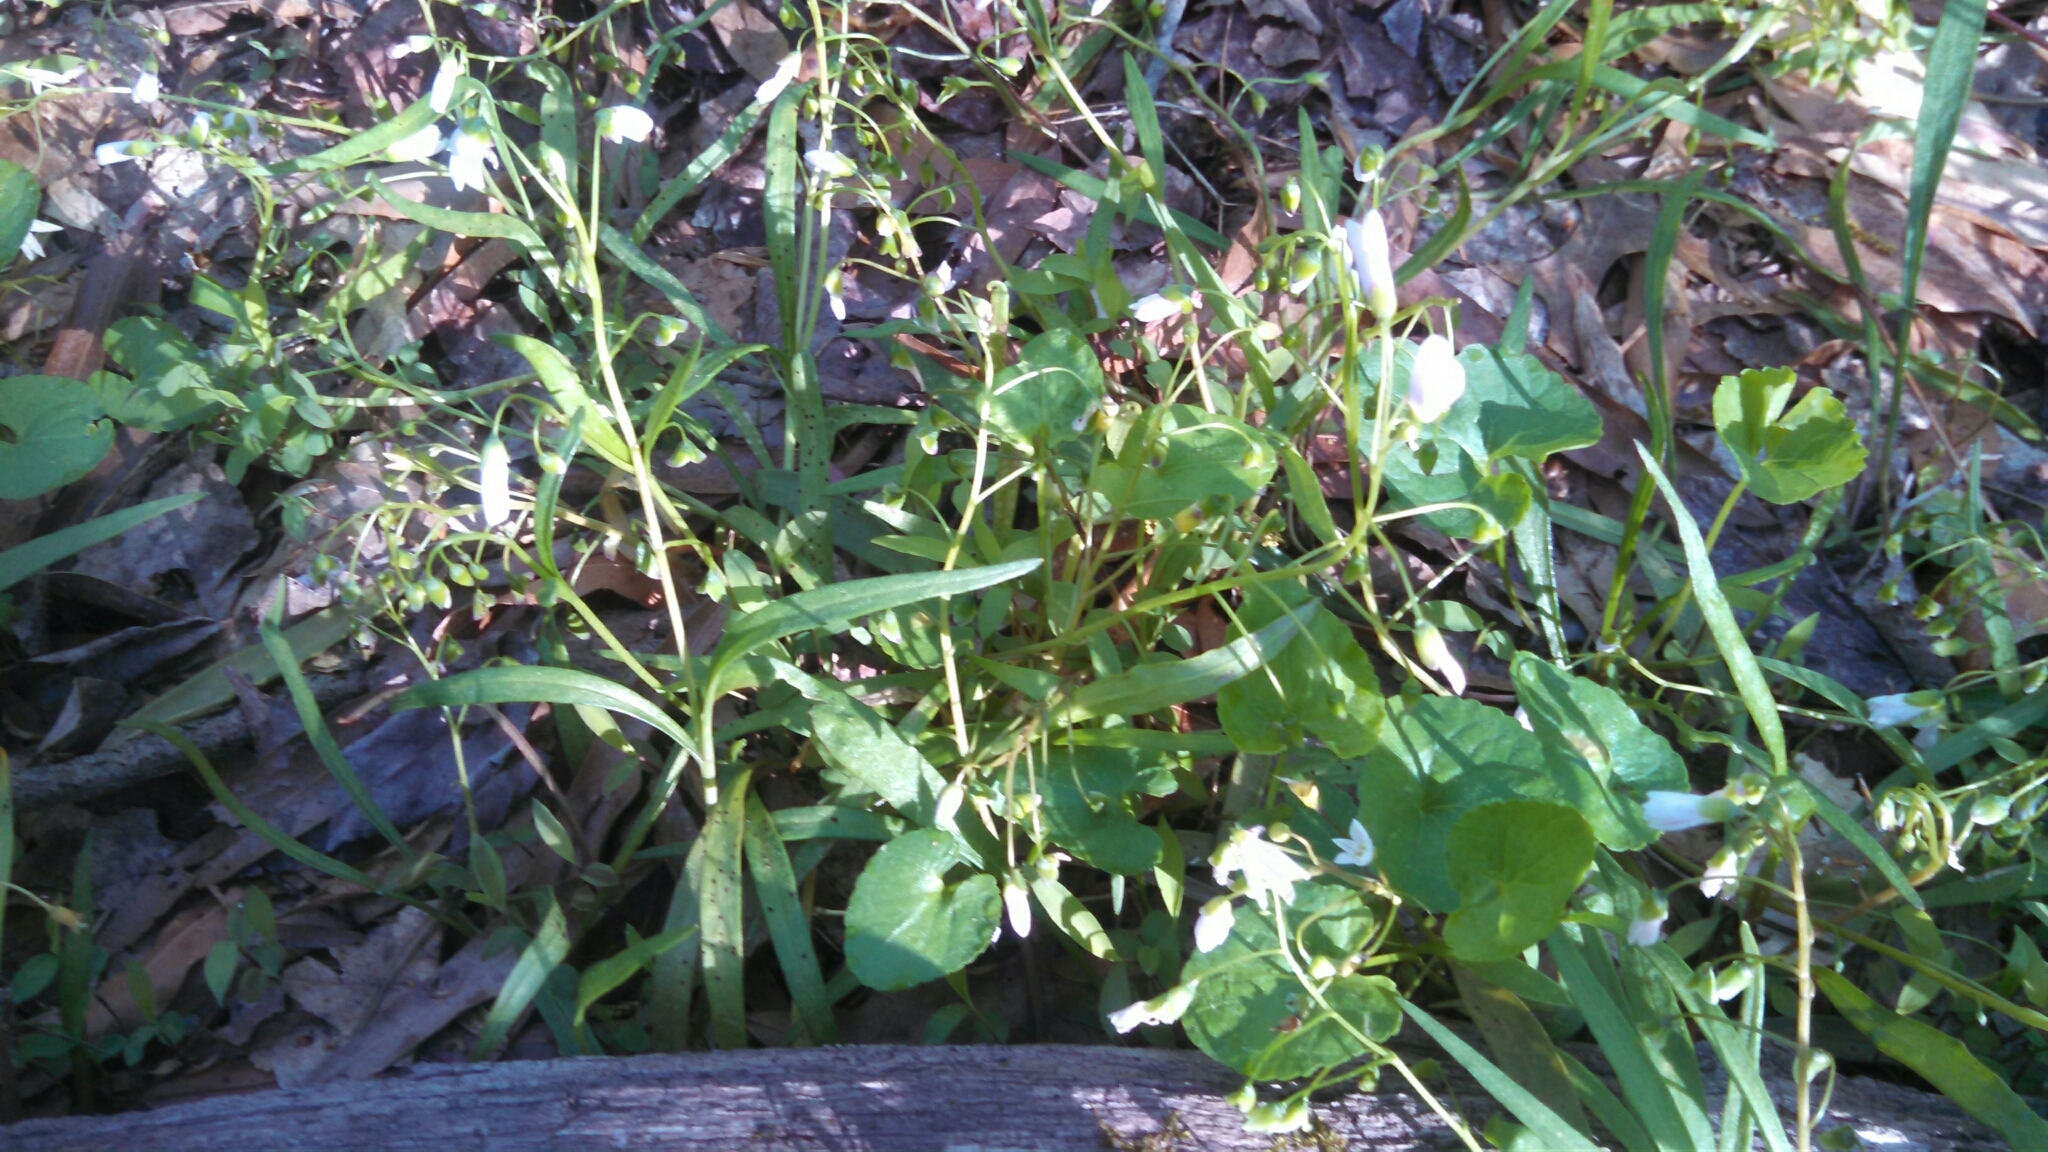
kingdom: Plantae
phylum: Tracheophyta
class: Magnoliopsida
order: Caryophyllales
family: Montiaceae
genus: Claytonia
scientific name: Claytonia virginica
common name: Virginia springbeauty
